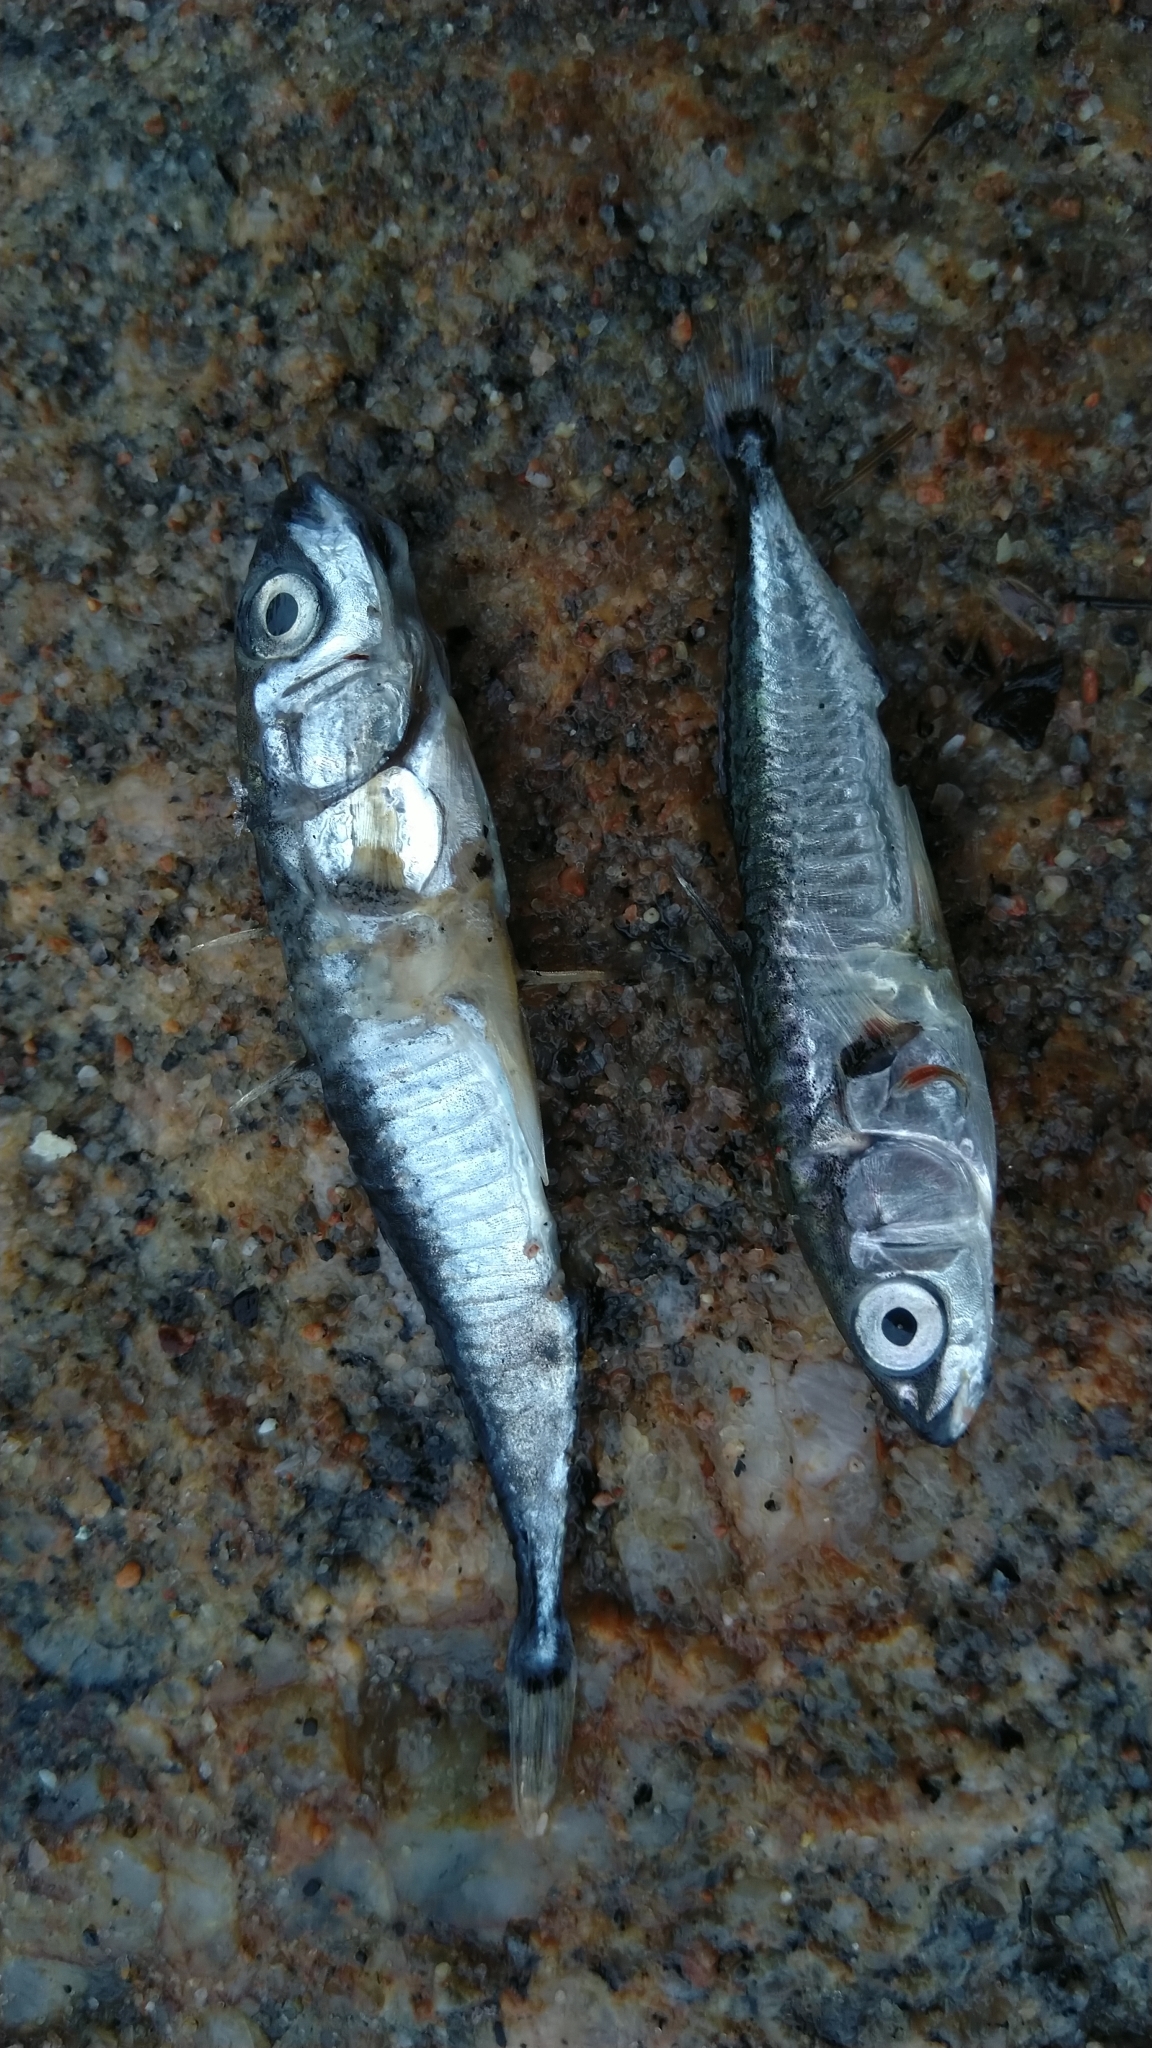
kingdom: Animalia
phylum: Chordata
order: Gasterosteiformes
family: Gasterosteidae
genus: Gasterosteus
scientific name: Gasterosteus aculeatus
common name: Three-spined stickleback
